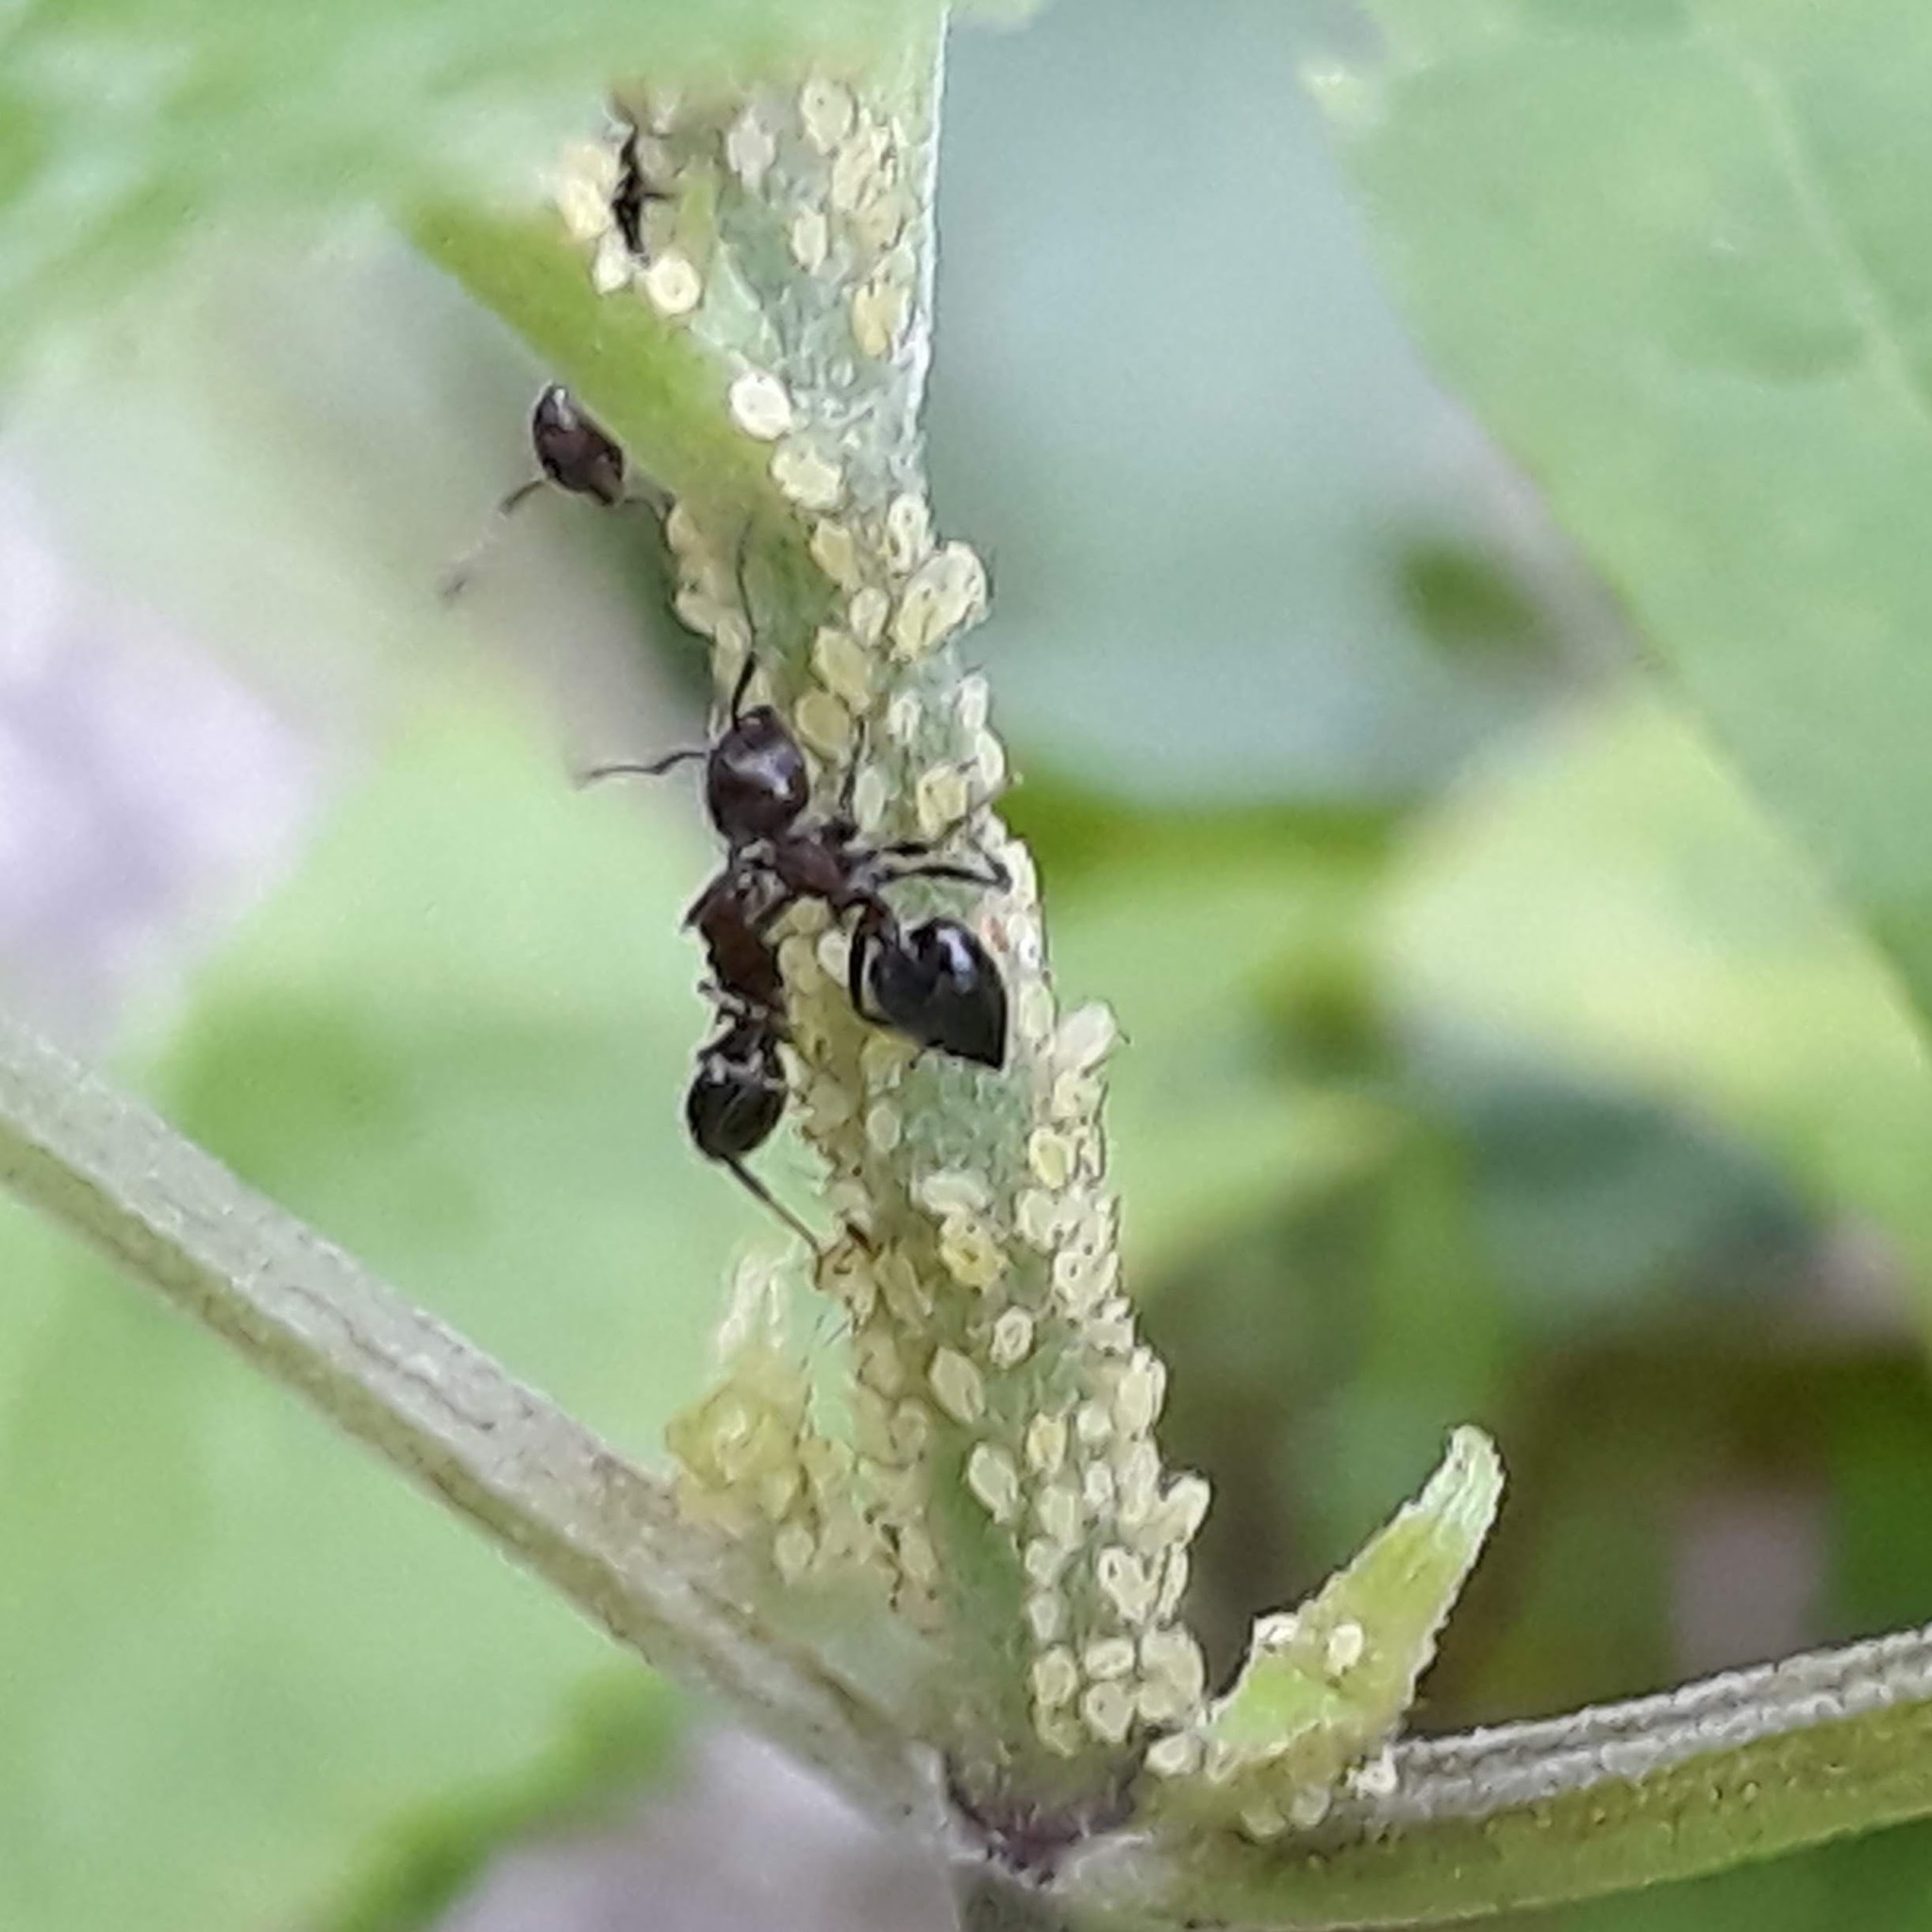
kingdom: Animalia
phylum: Arthropoda
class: Insecta
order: Hymenoptera
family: Formicidae
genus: Crematogaster
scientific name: Crematogaster
